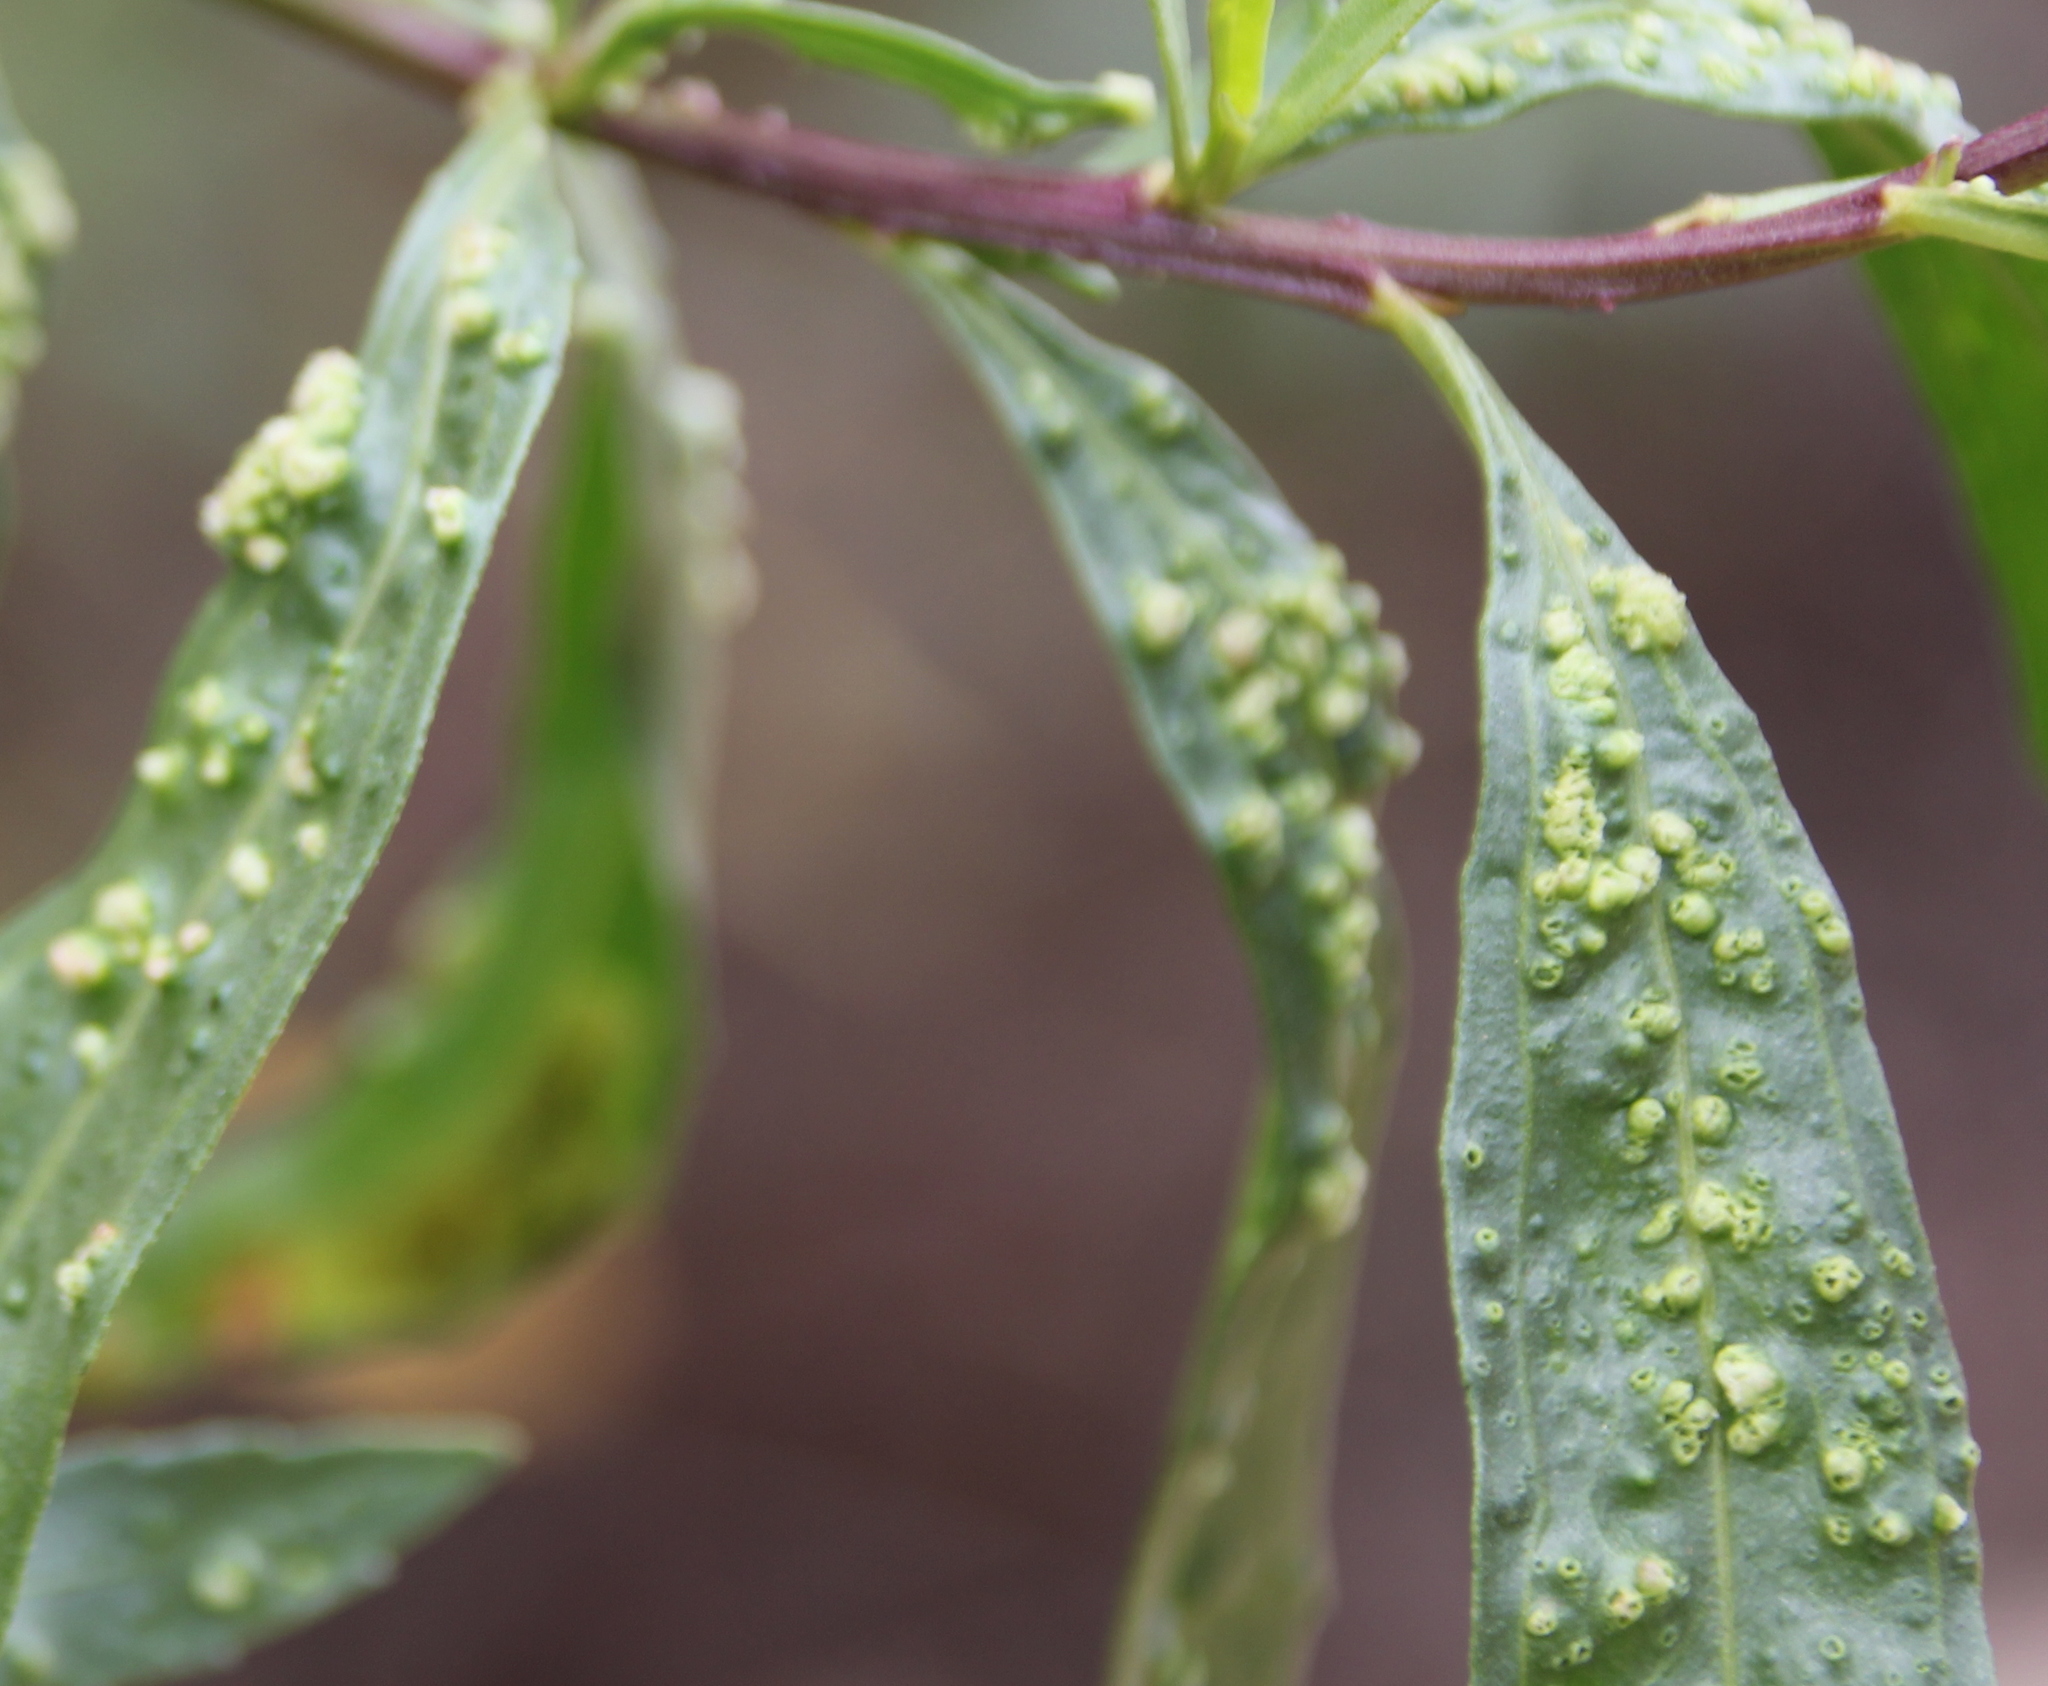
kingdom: Animalia
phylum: Arthropoda
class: Arachnida
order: Trombidiformes
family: Eriophyidae
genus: Aceria
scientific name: Aceria
